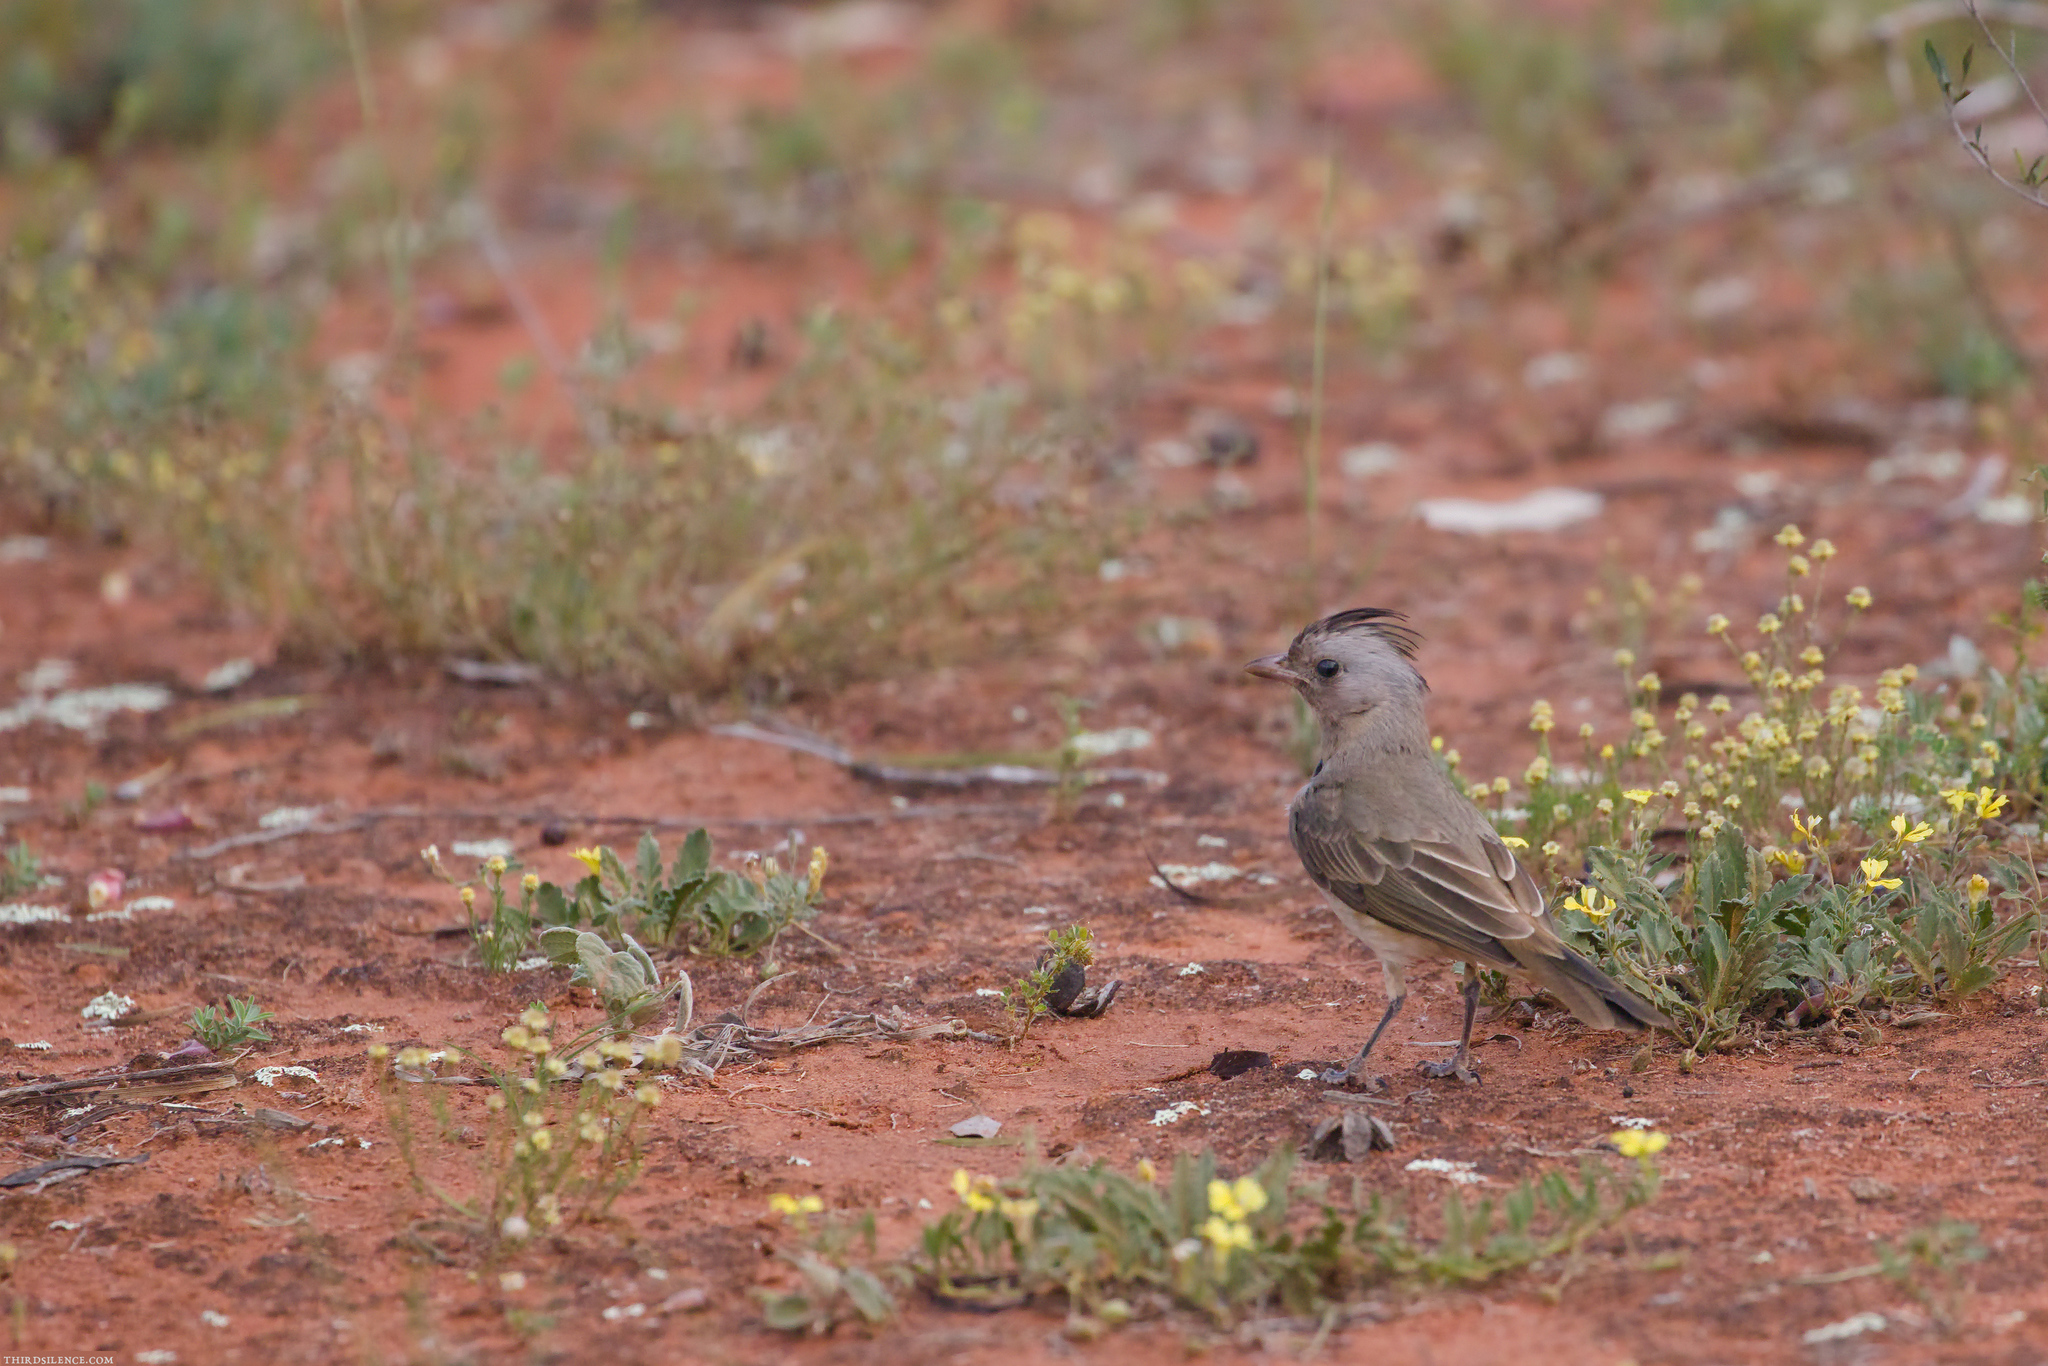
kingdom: Animalia
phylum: Chordata
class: Aves
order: Passeriformes
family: Oreoicidae
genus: Oreoica
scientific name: Oreoica gutturalis
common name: Crested bellbird
